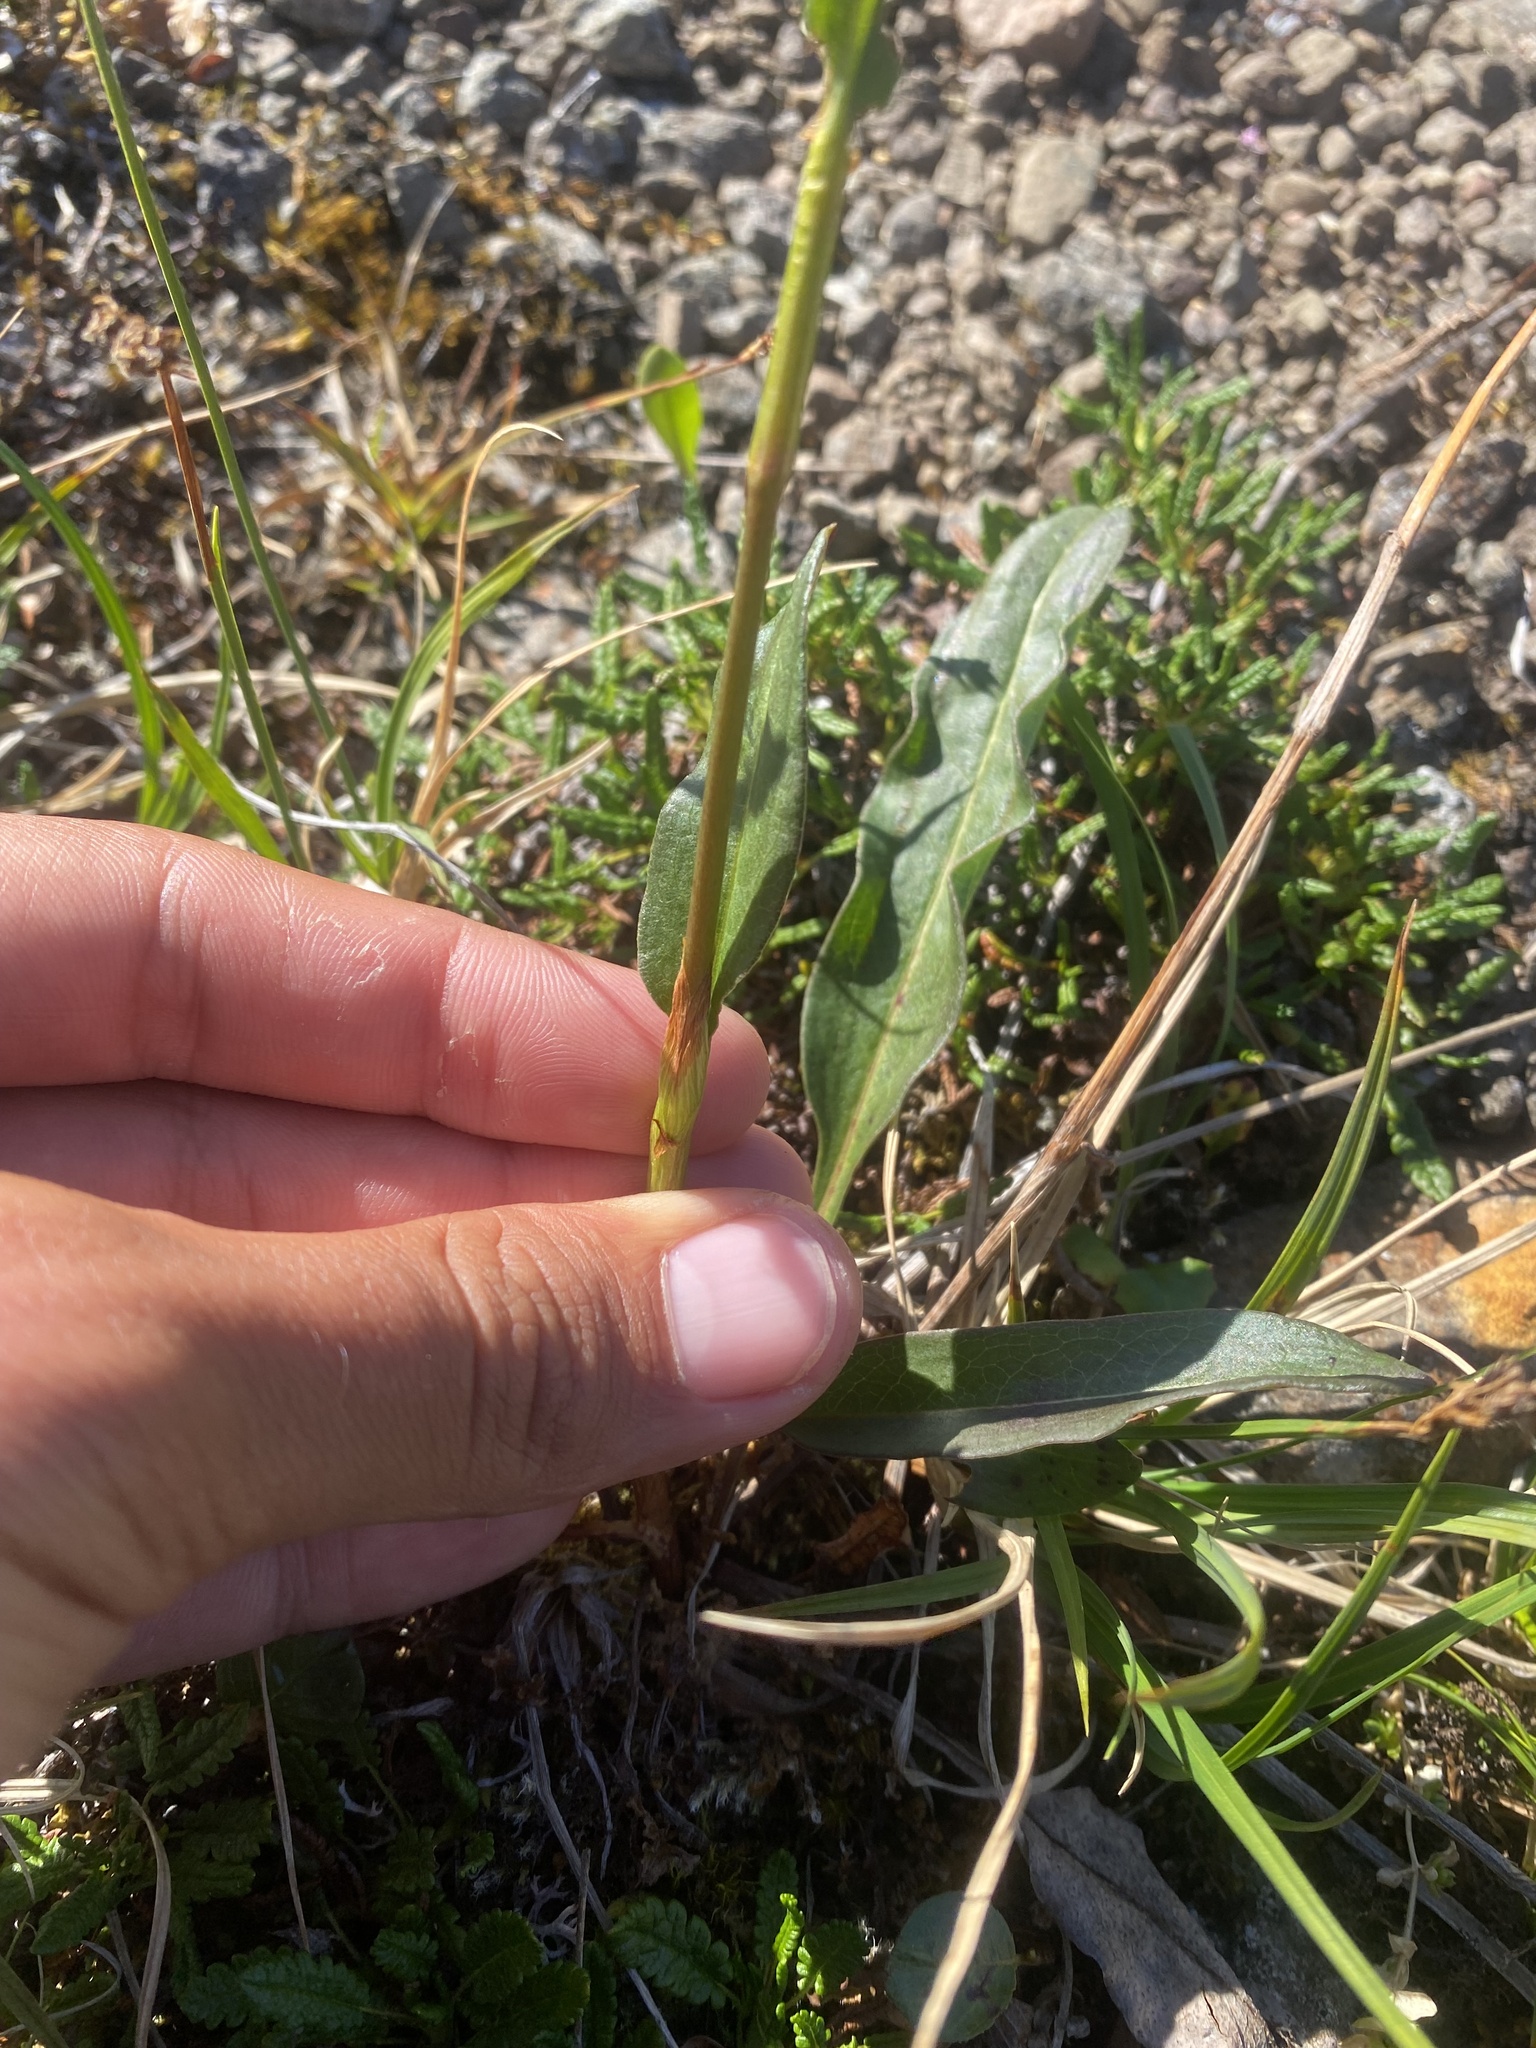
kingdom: Plantae
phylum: Tracheophyta
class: Magnoliopsida
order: Caryophyllales
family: Polygonaceae
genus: Bistorta
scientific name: Bistorta plumosa
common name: Meadow bistort
